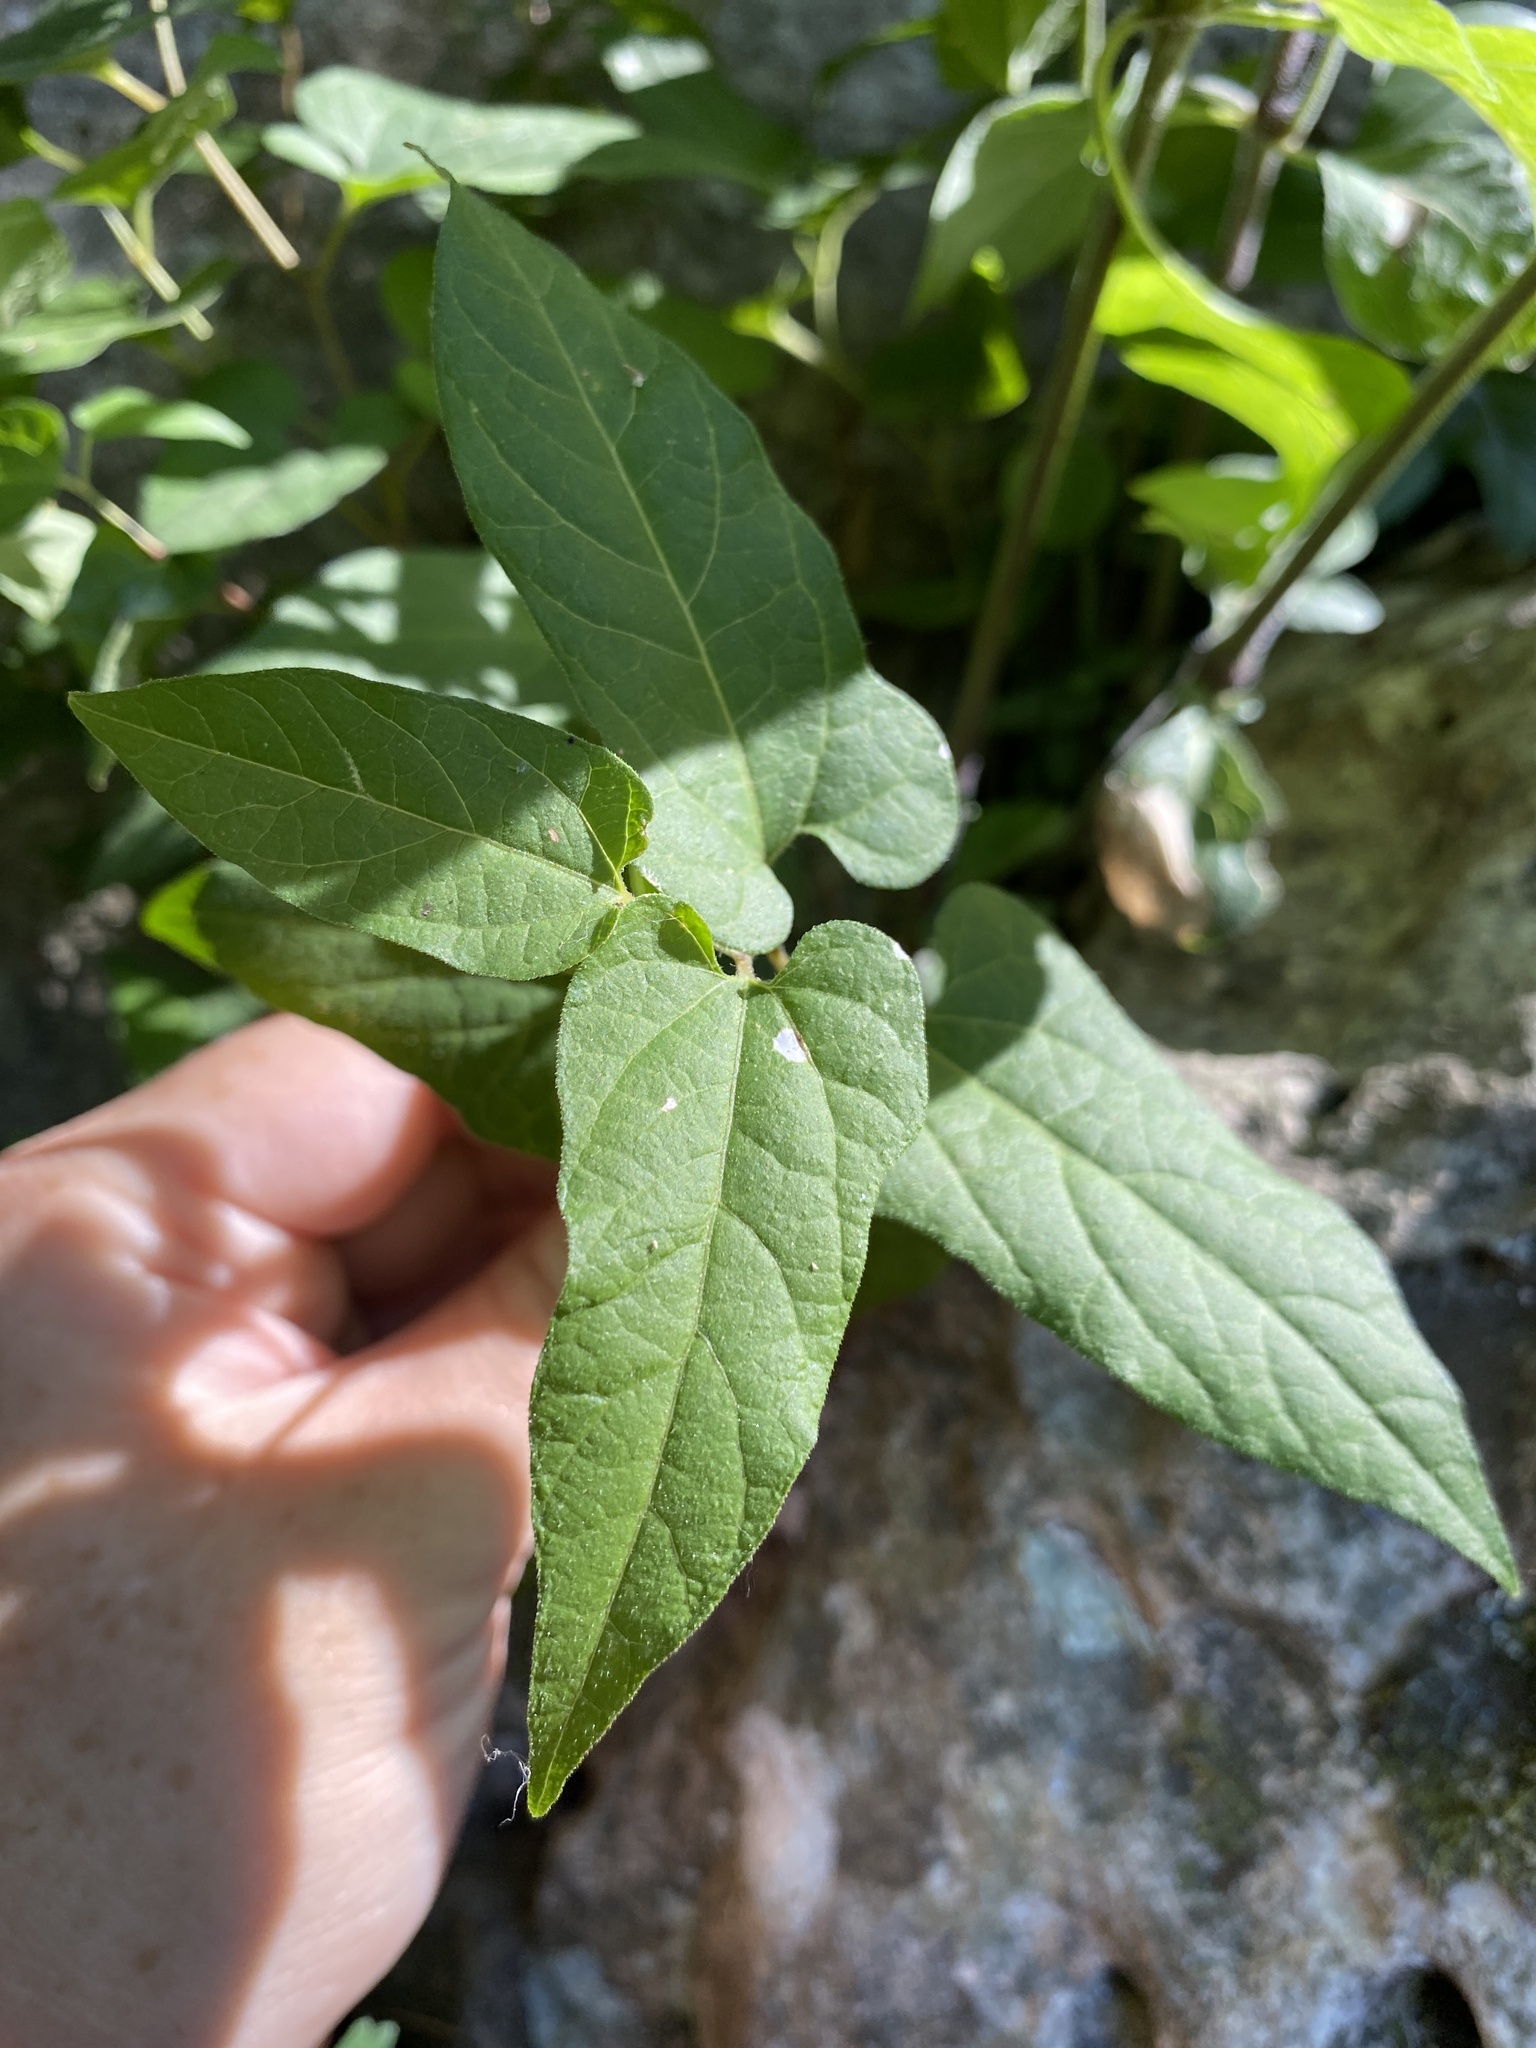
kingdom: Plantae
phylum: Tracheophyta
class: Magnoliopsida
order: Piperales
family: Aristolochiaceae
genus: Endodeca
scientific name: Endodeca serpentaria
